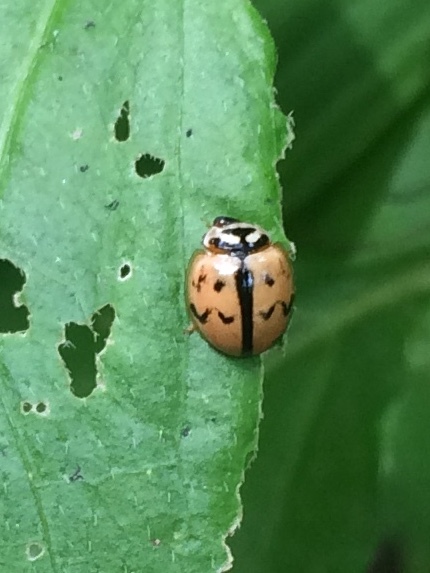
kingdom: Animalia
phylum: Arthropoda
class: Insecta
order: Coleoptera
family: Coccinellidae
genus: Cheilomenes
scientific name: Cheilomenes sexmaculata
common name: Ladybird beetle
